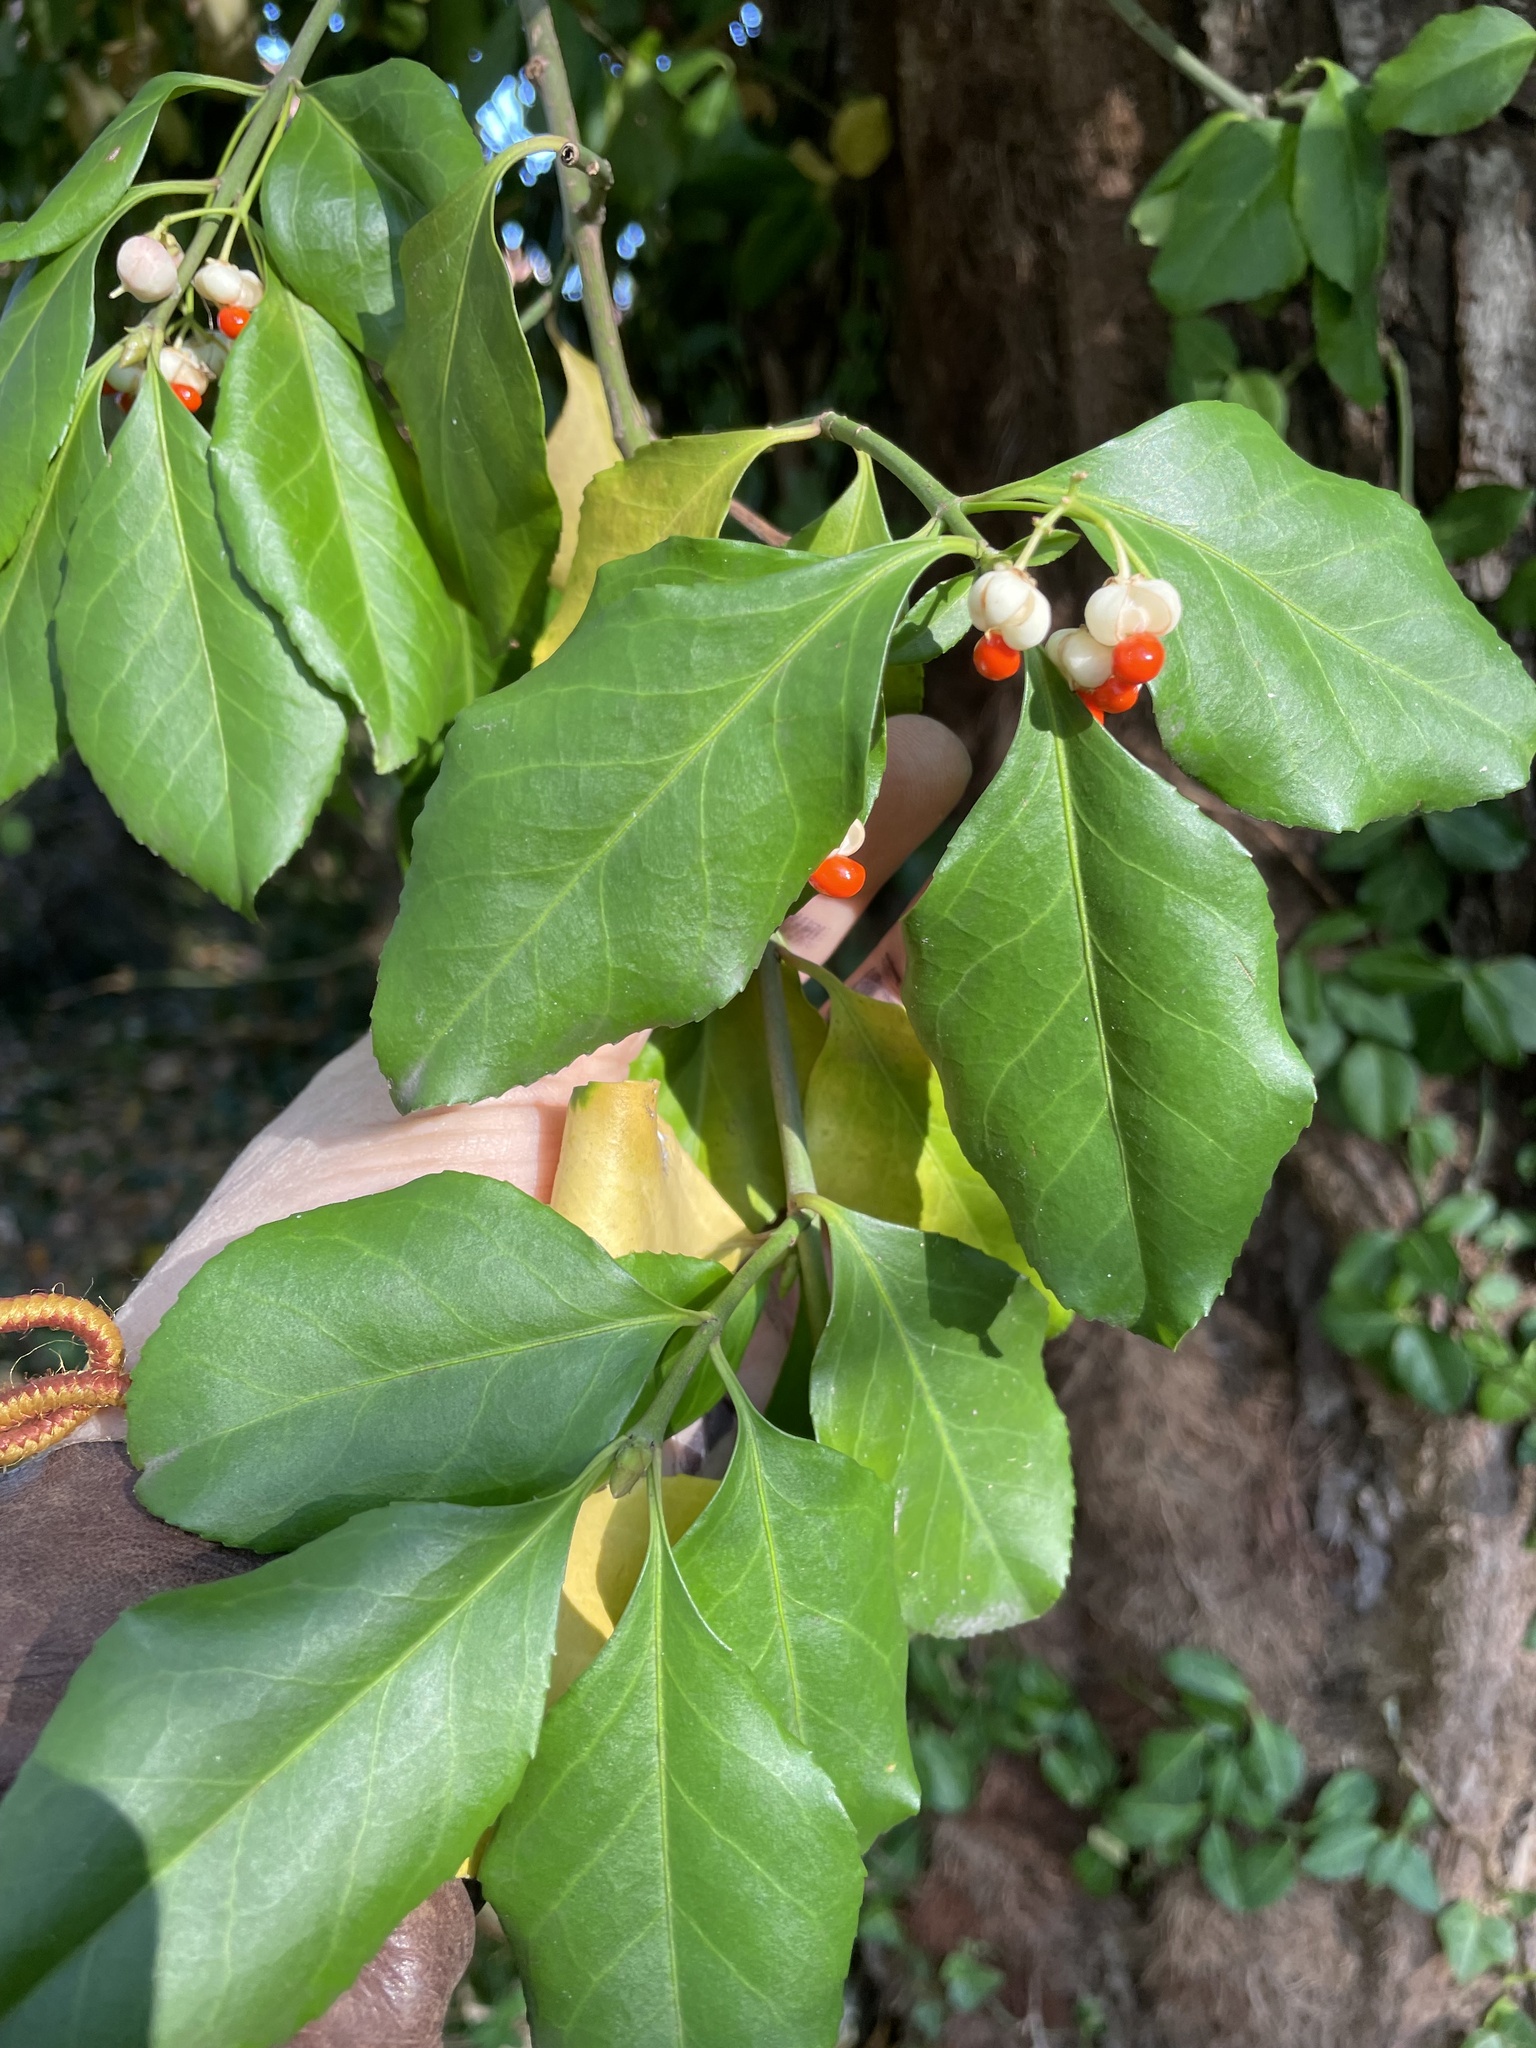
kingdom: Plantae
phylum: Tracheophyta
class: Magnoliopsida
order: Celastrales
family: Celastraceae
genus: Euonymus
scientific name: Euonymus fortunei
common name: Climbing euonymus
